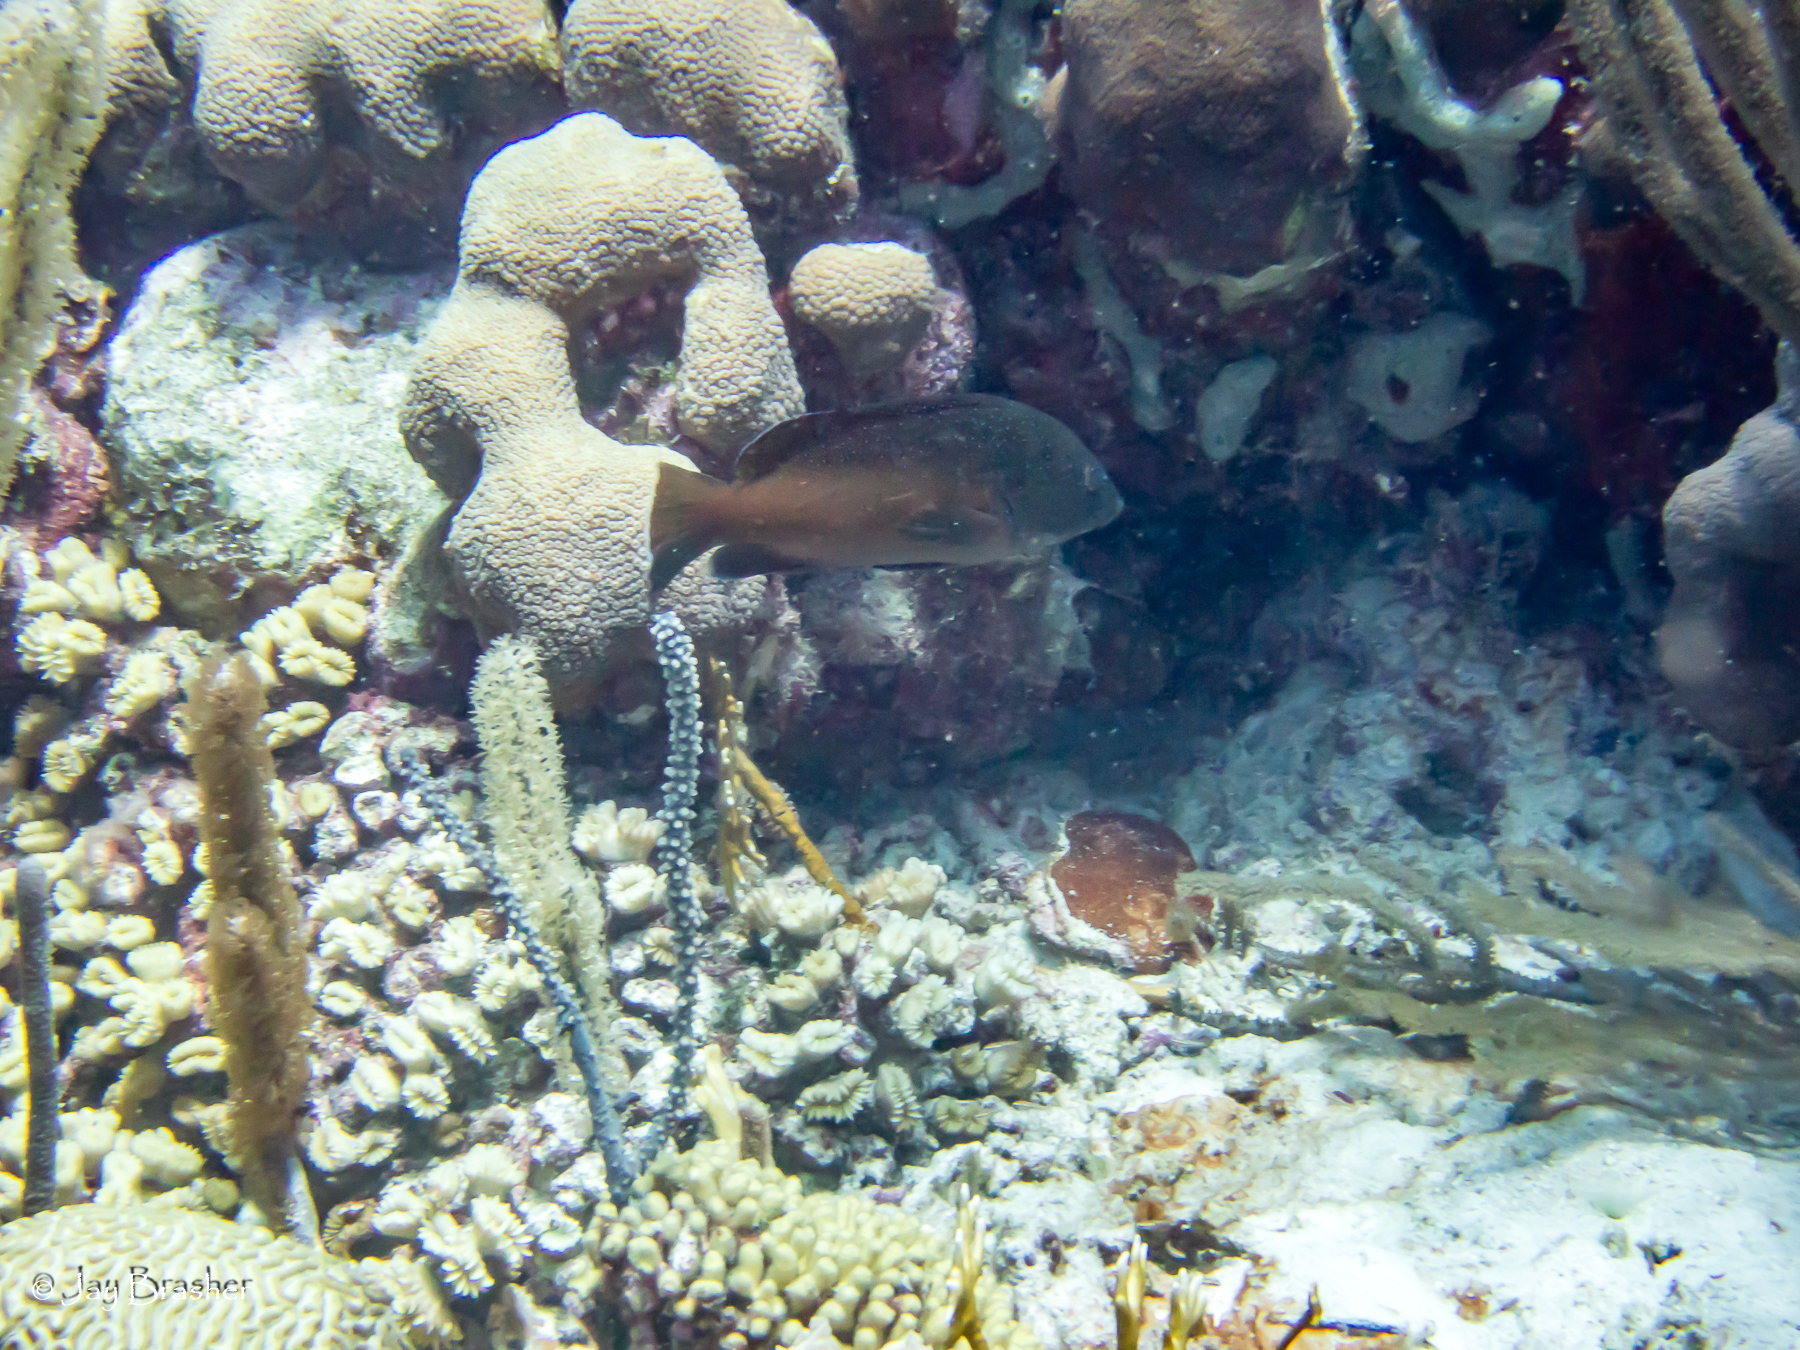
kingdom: Animalia
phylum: Chordata
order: Perciformes
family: Serranidae
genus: Cephalopholis
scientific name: Cephalopholis fulva
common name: Butterfish
